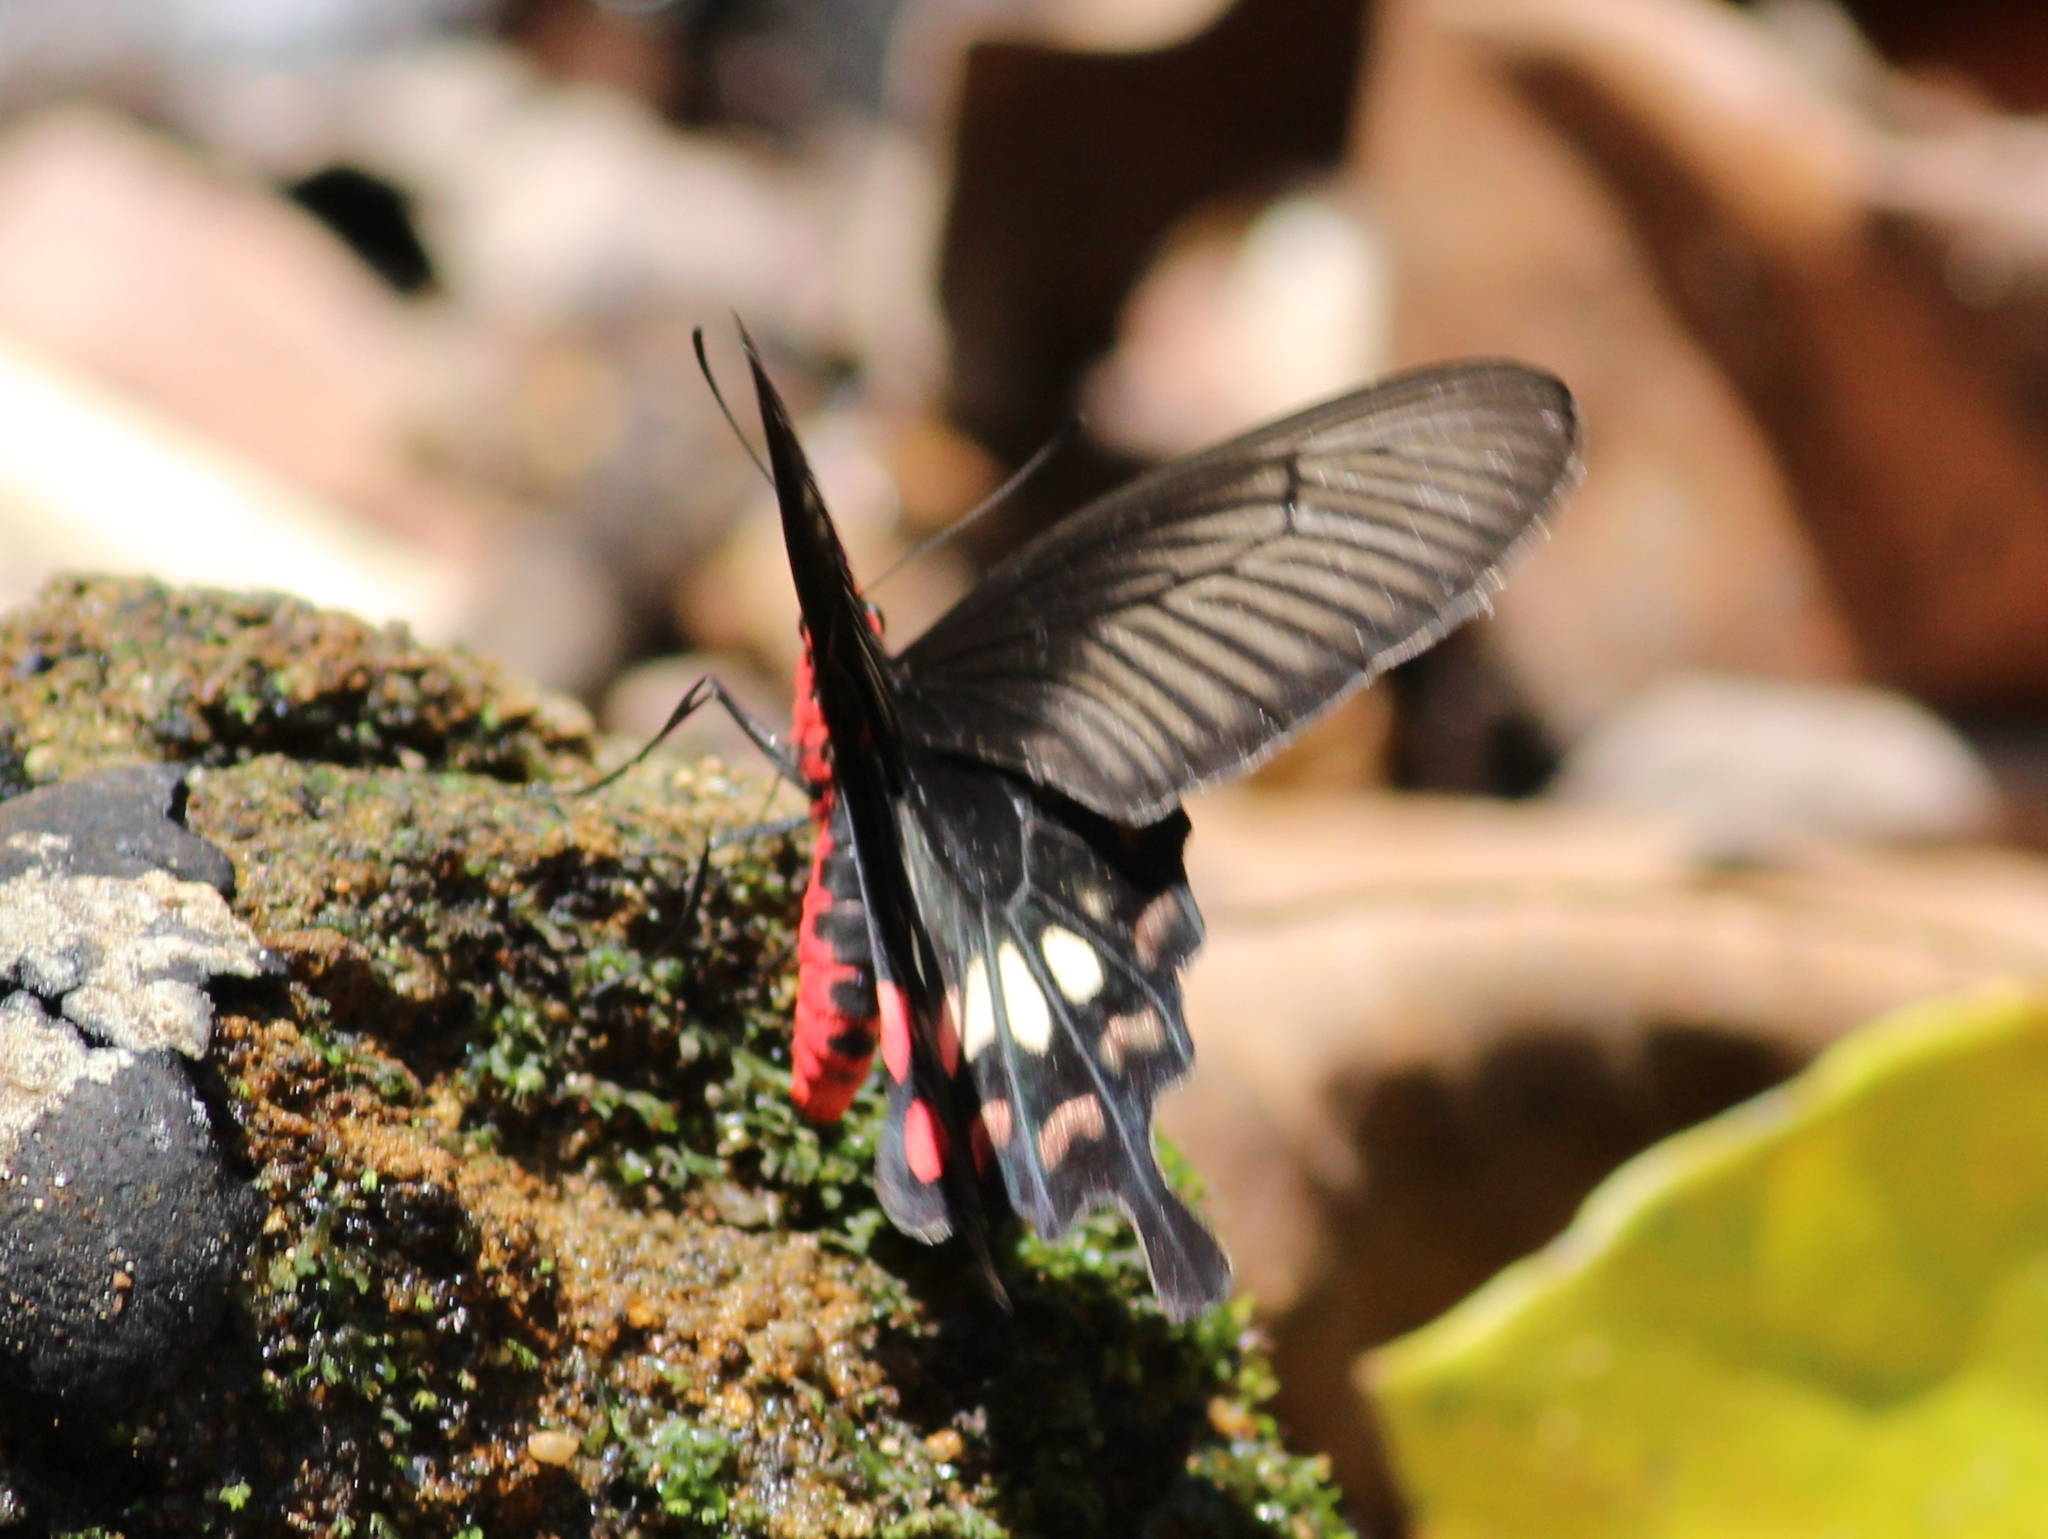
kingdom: Animalia
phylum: Arthropoda
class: Insecta
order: Lepidoptera
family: Papilionidae
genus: Pachliopta
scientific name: Pachliopta aristolochiae
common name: Common rose
